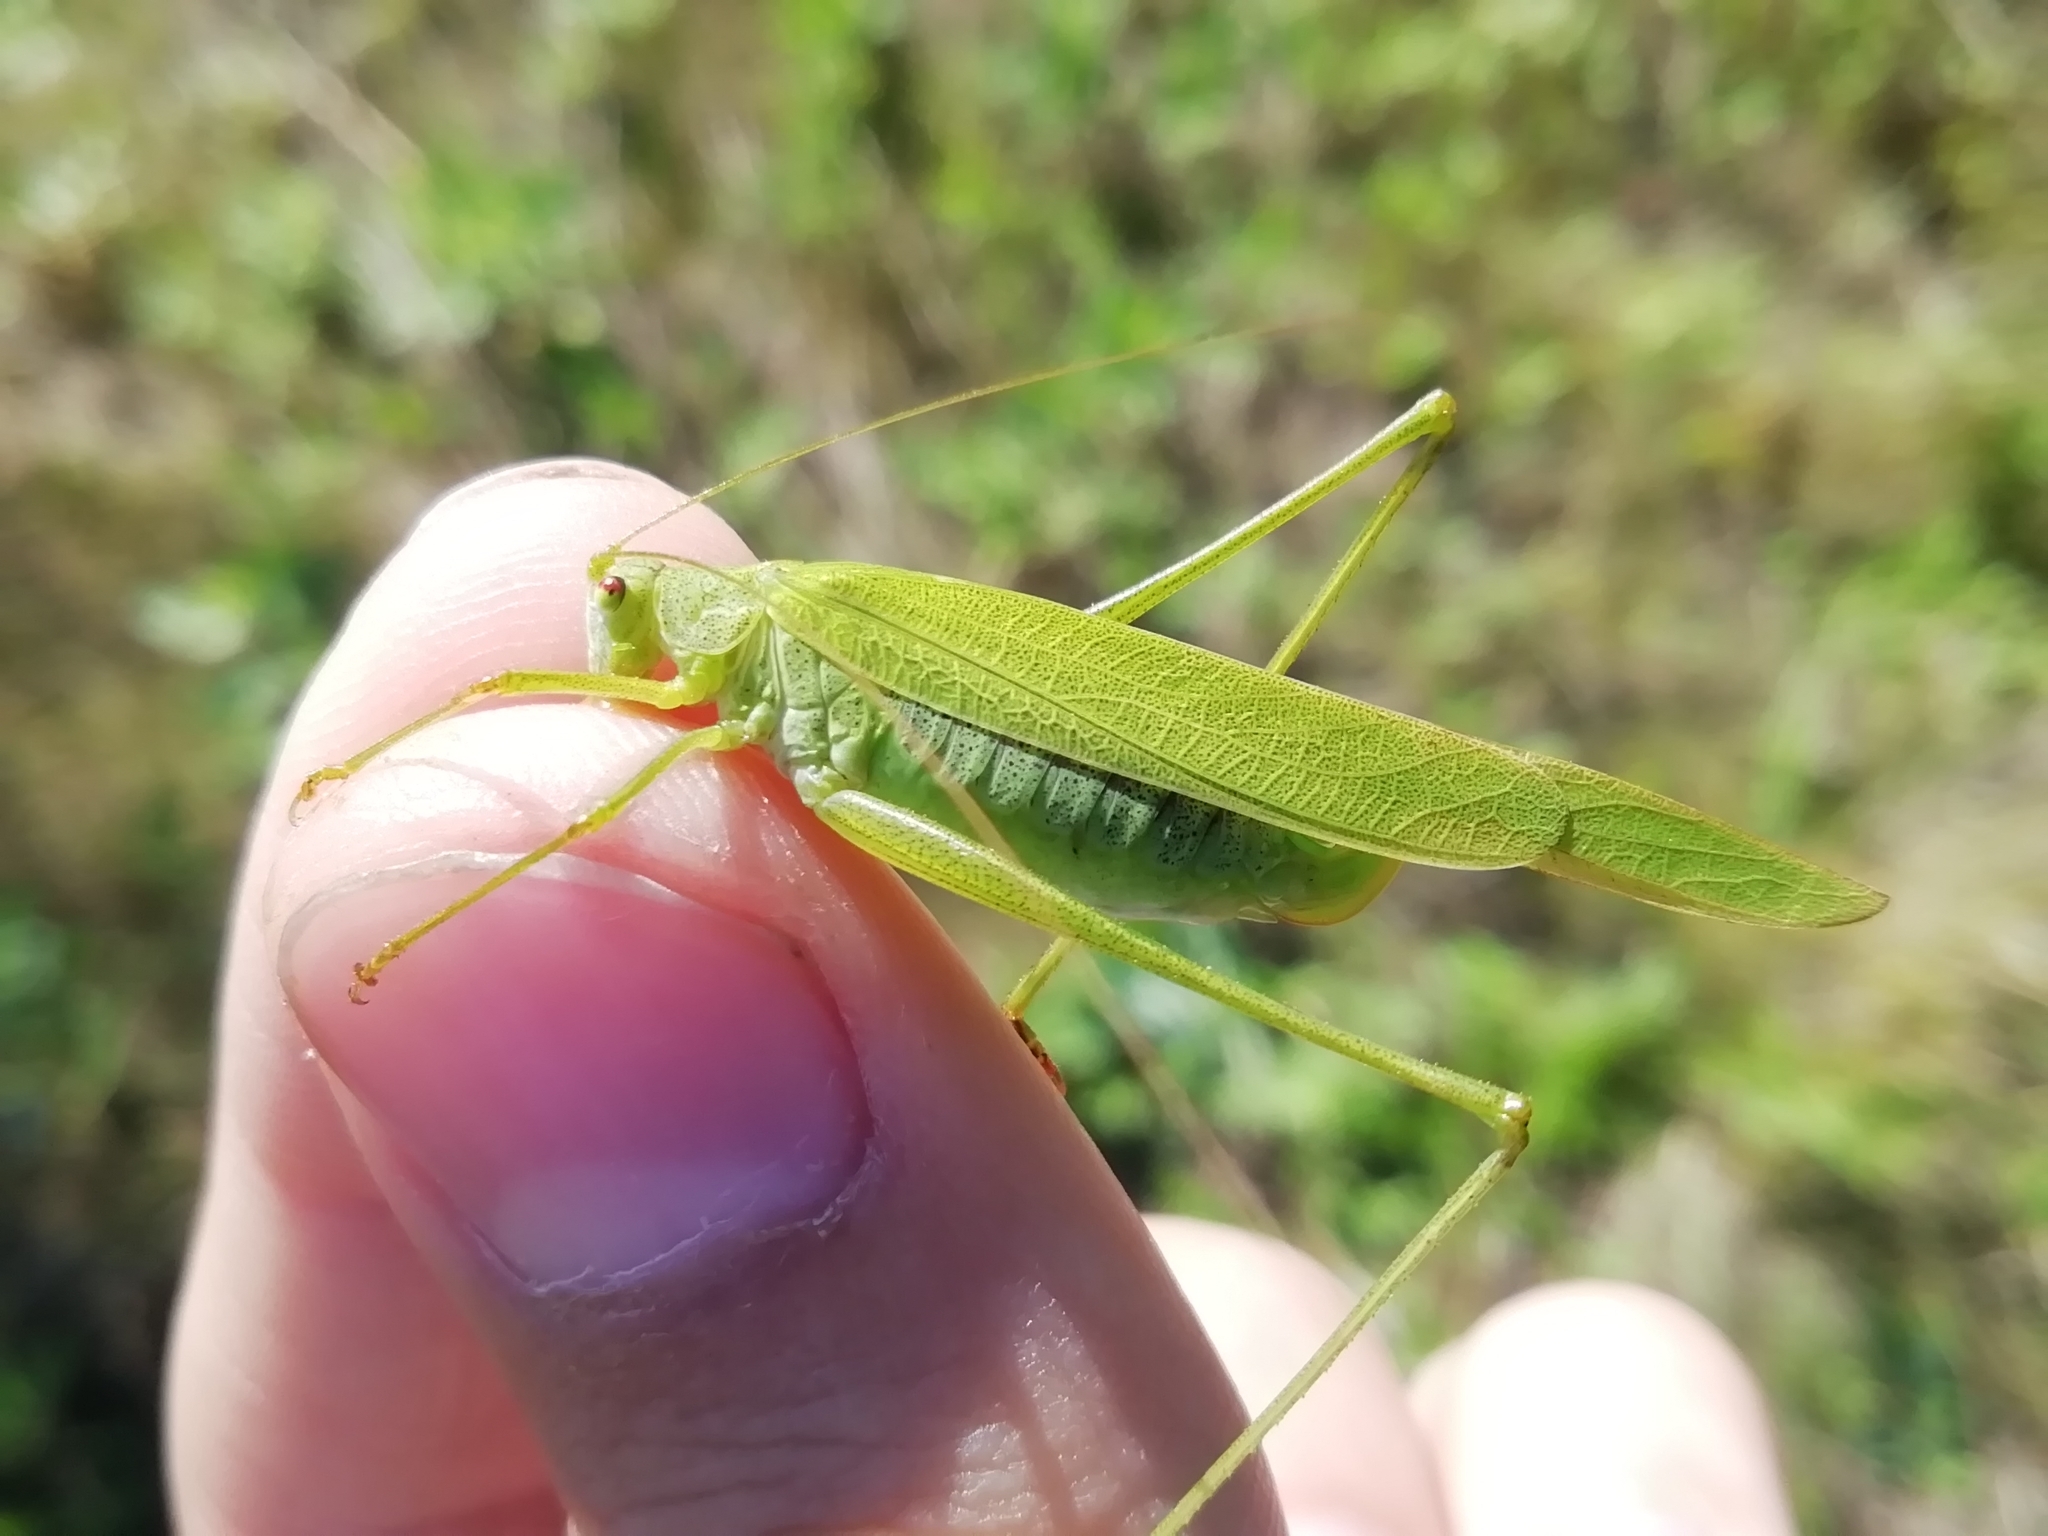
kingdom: Animalia
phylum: Arthropoda
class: Insecta
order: Orthoptera
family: Tettigoniidae
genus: Phaneroptera
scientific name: Phaneroptera falcata
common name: Sickle-bearing bush-cricket
